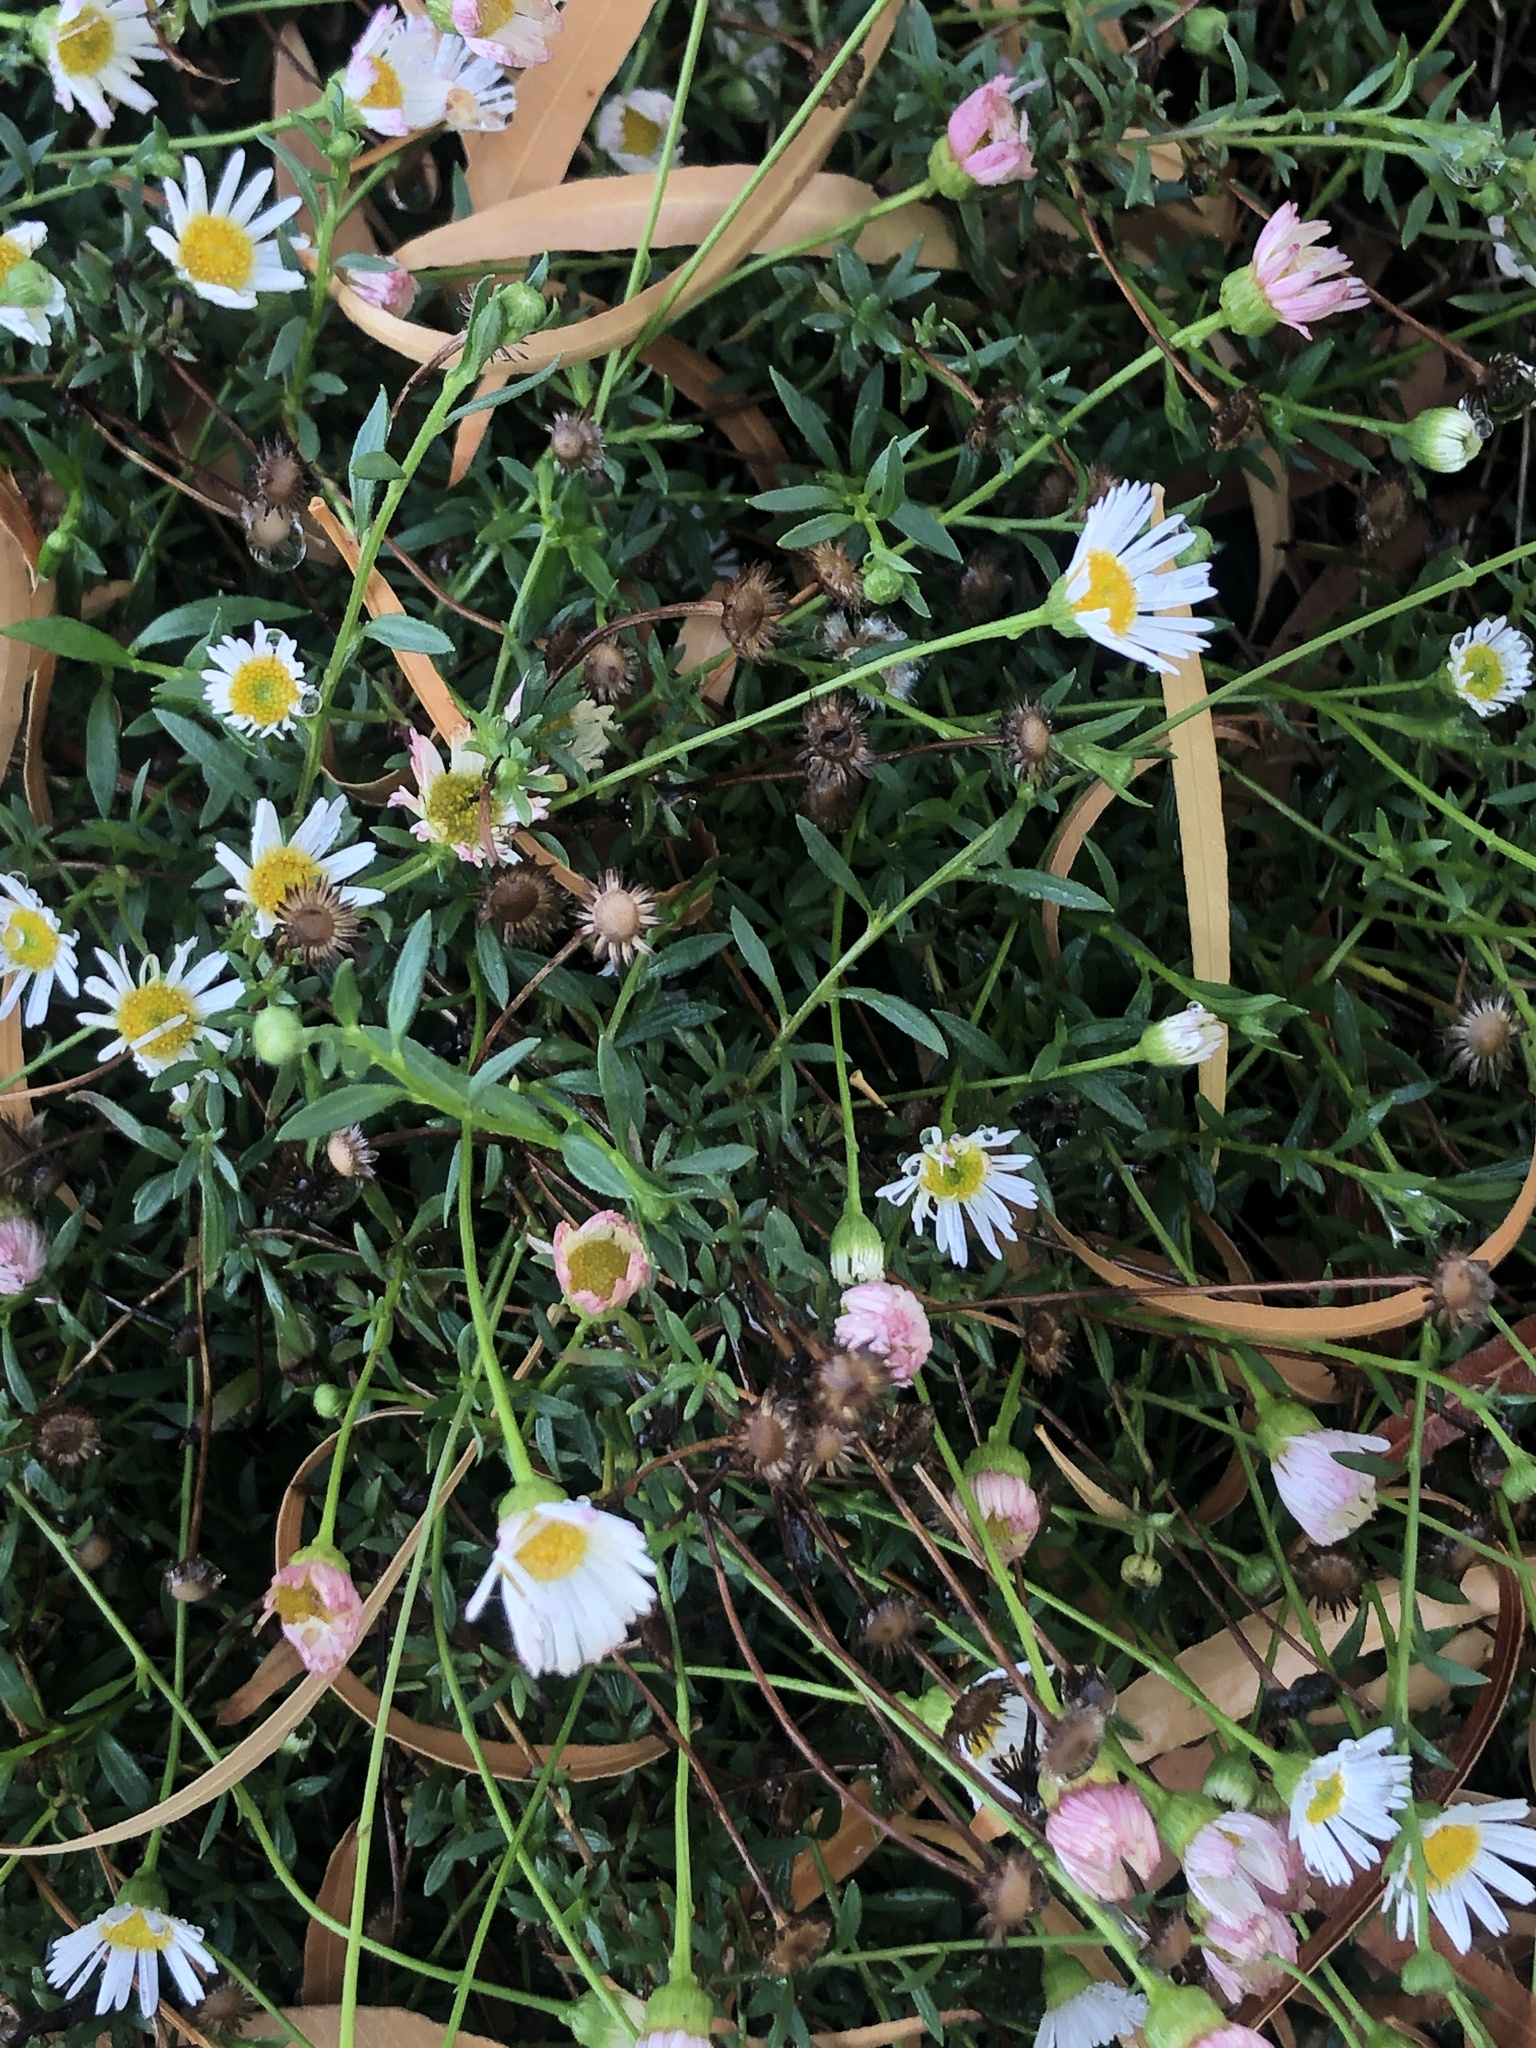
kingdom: Plantae
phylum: Tracheophyta
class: Magnoliopsida
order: Asterales
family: Asteraceae
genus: Erigeron
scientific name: Erigeron karvinskianus
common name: Mexican fleabane
